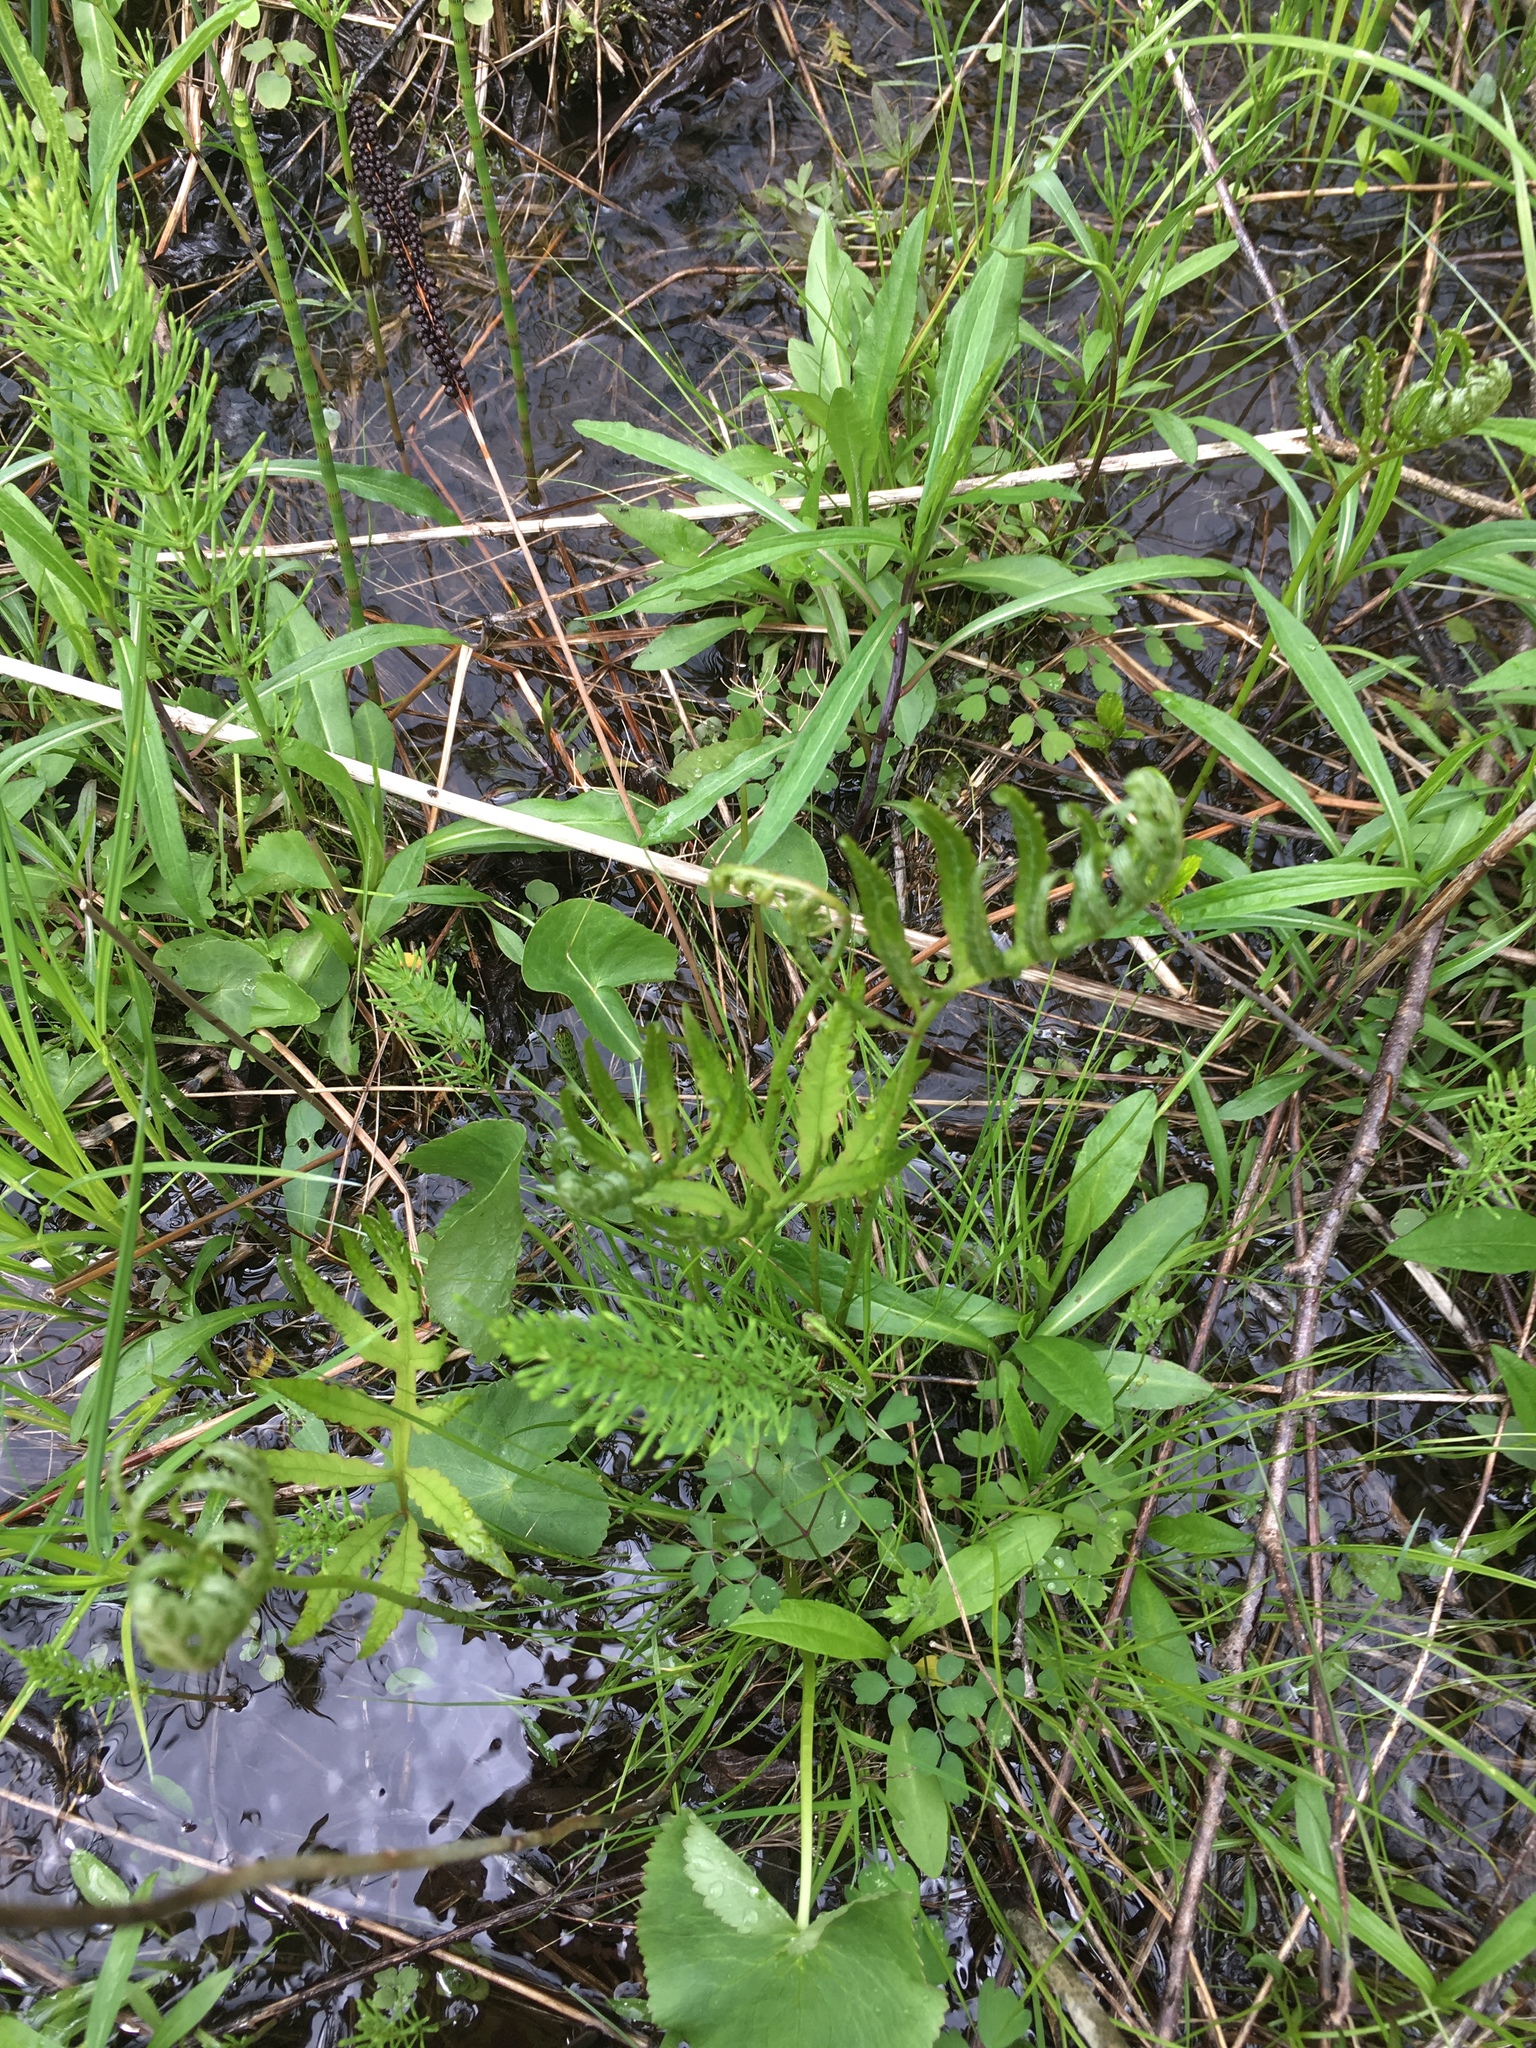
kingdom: Plantae
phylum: Tracheophyta
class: Polypodiopsida
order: Polypodiales
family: Onocleaceae
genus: Onoclea
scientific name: Onoclea sensibilis
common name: Sensitive fern
